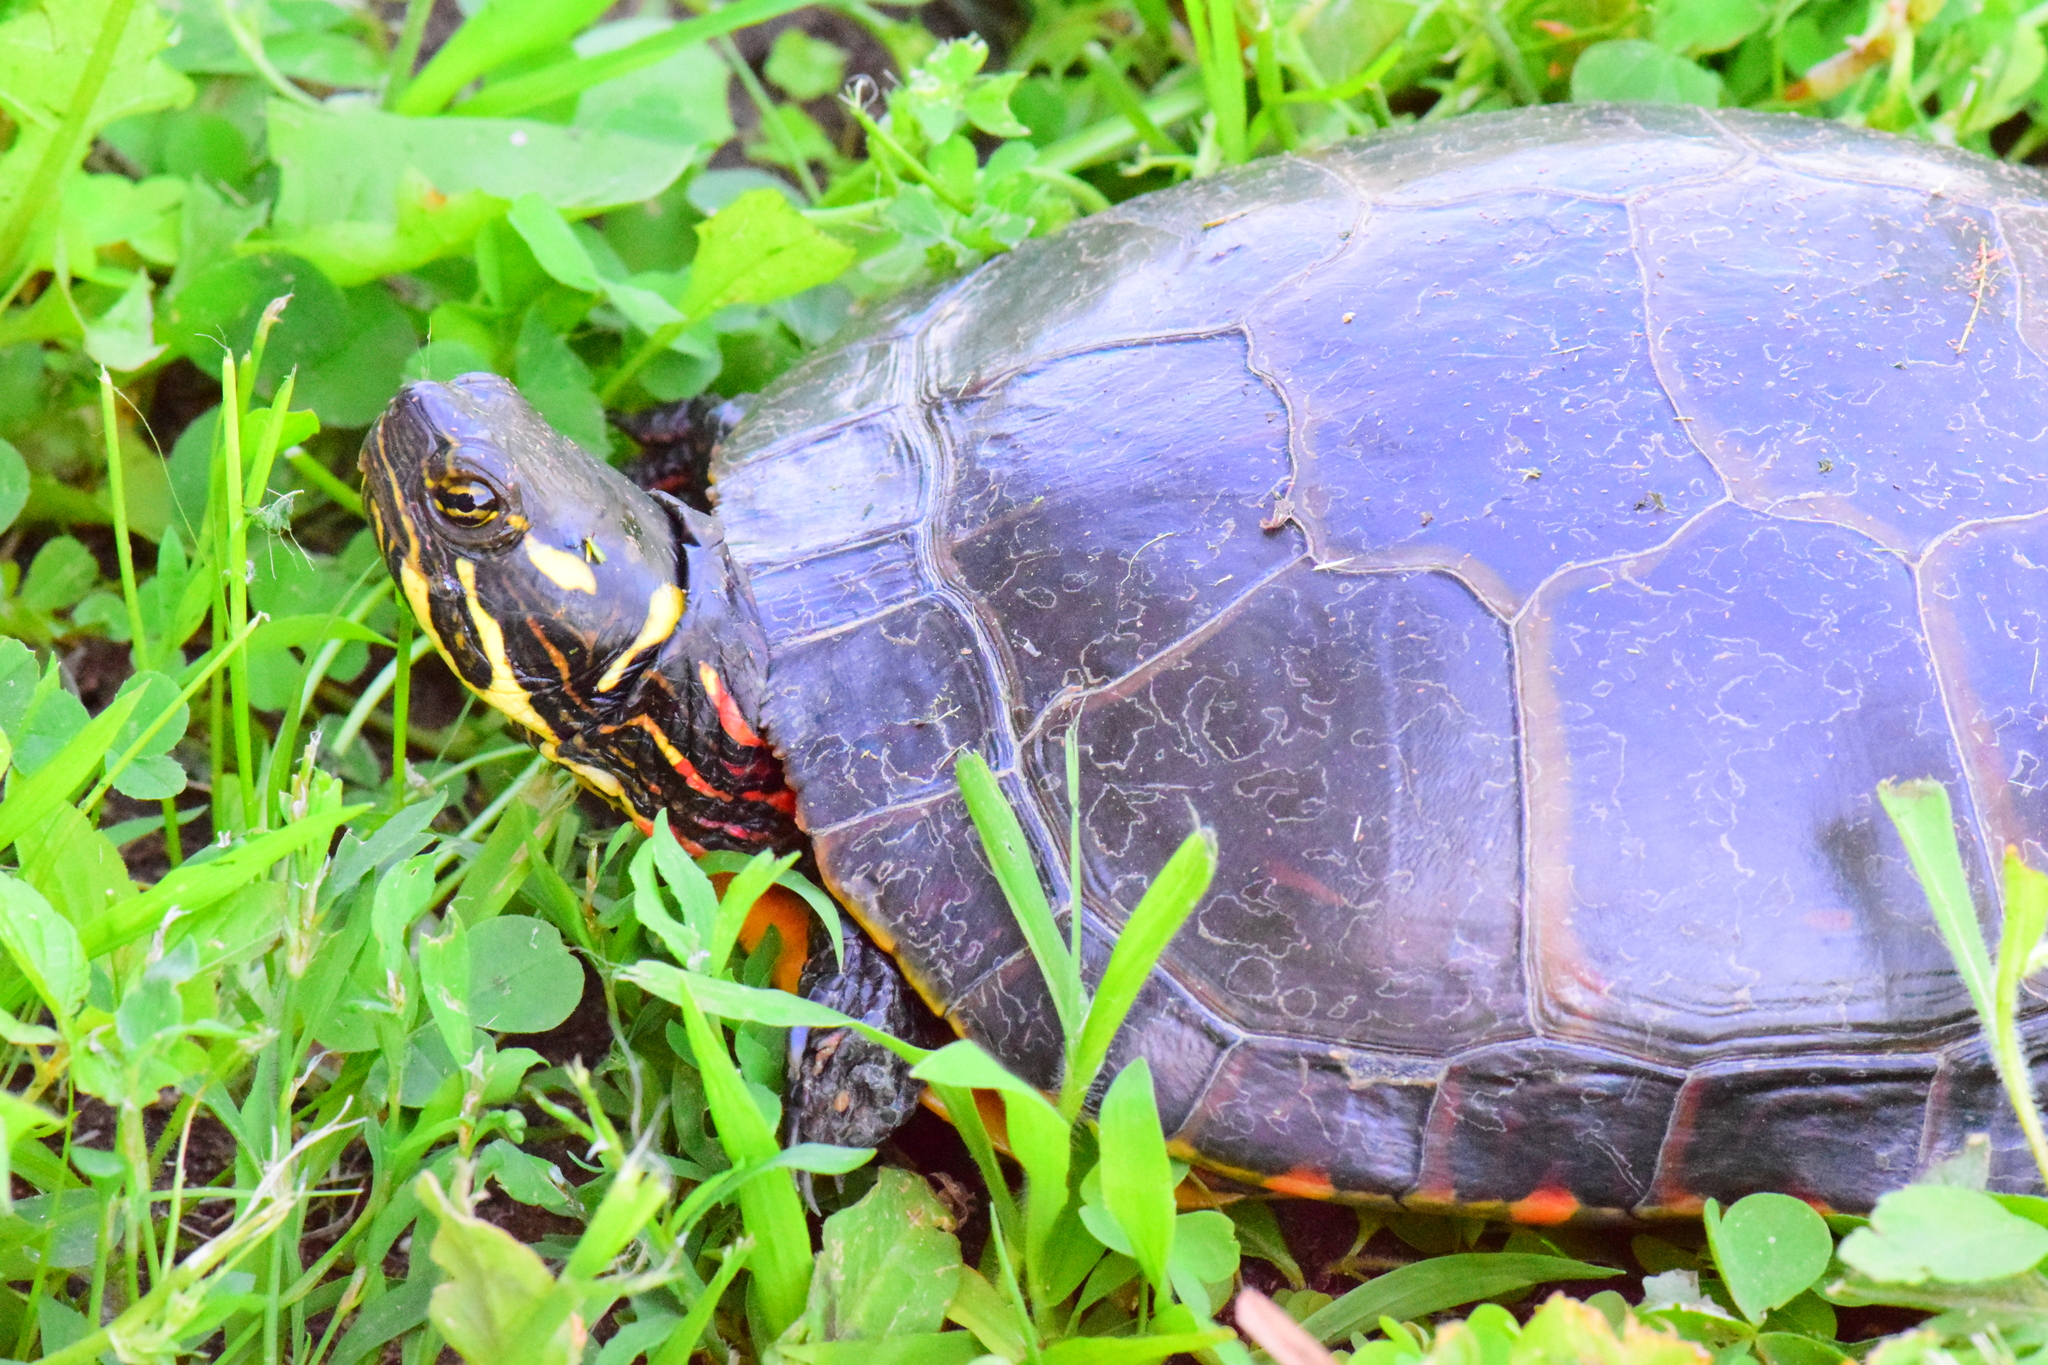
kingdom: Animalia
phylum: Chordata
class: Testudines
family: Emydidae
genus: Chrysemys
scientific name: Chrysemys picta
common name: Painted turtle
